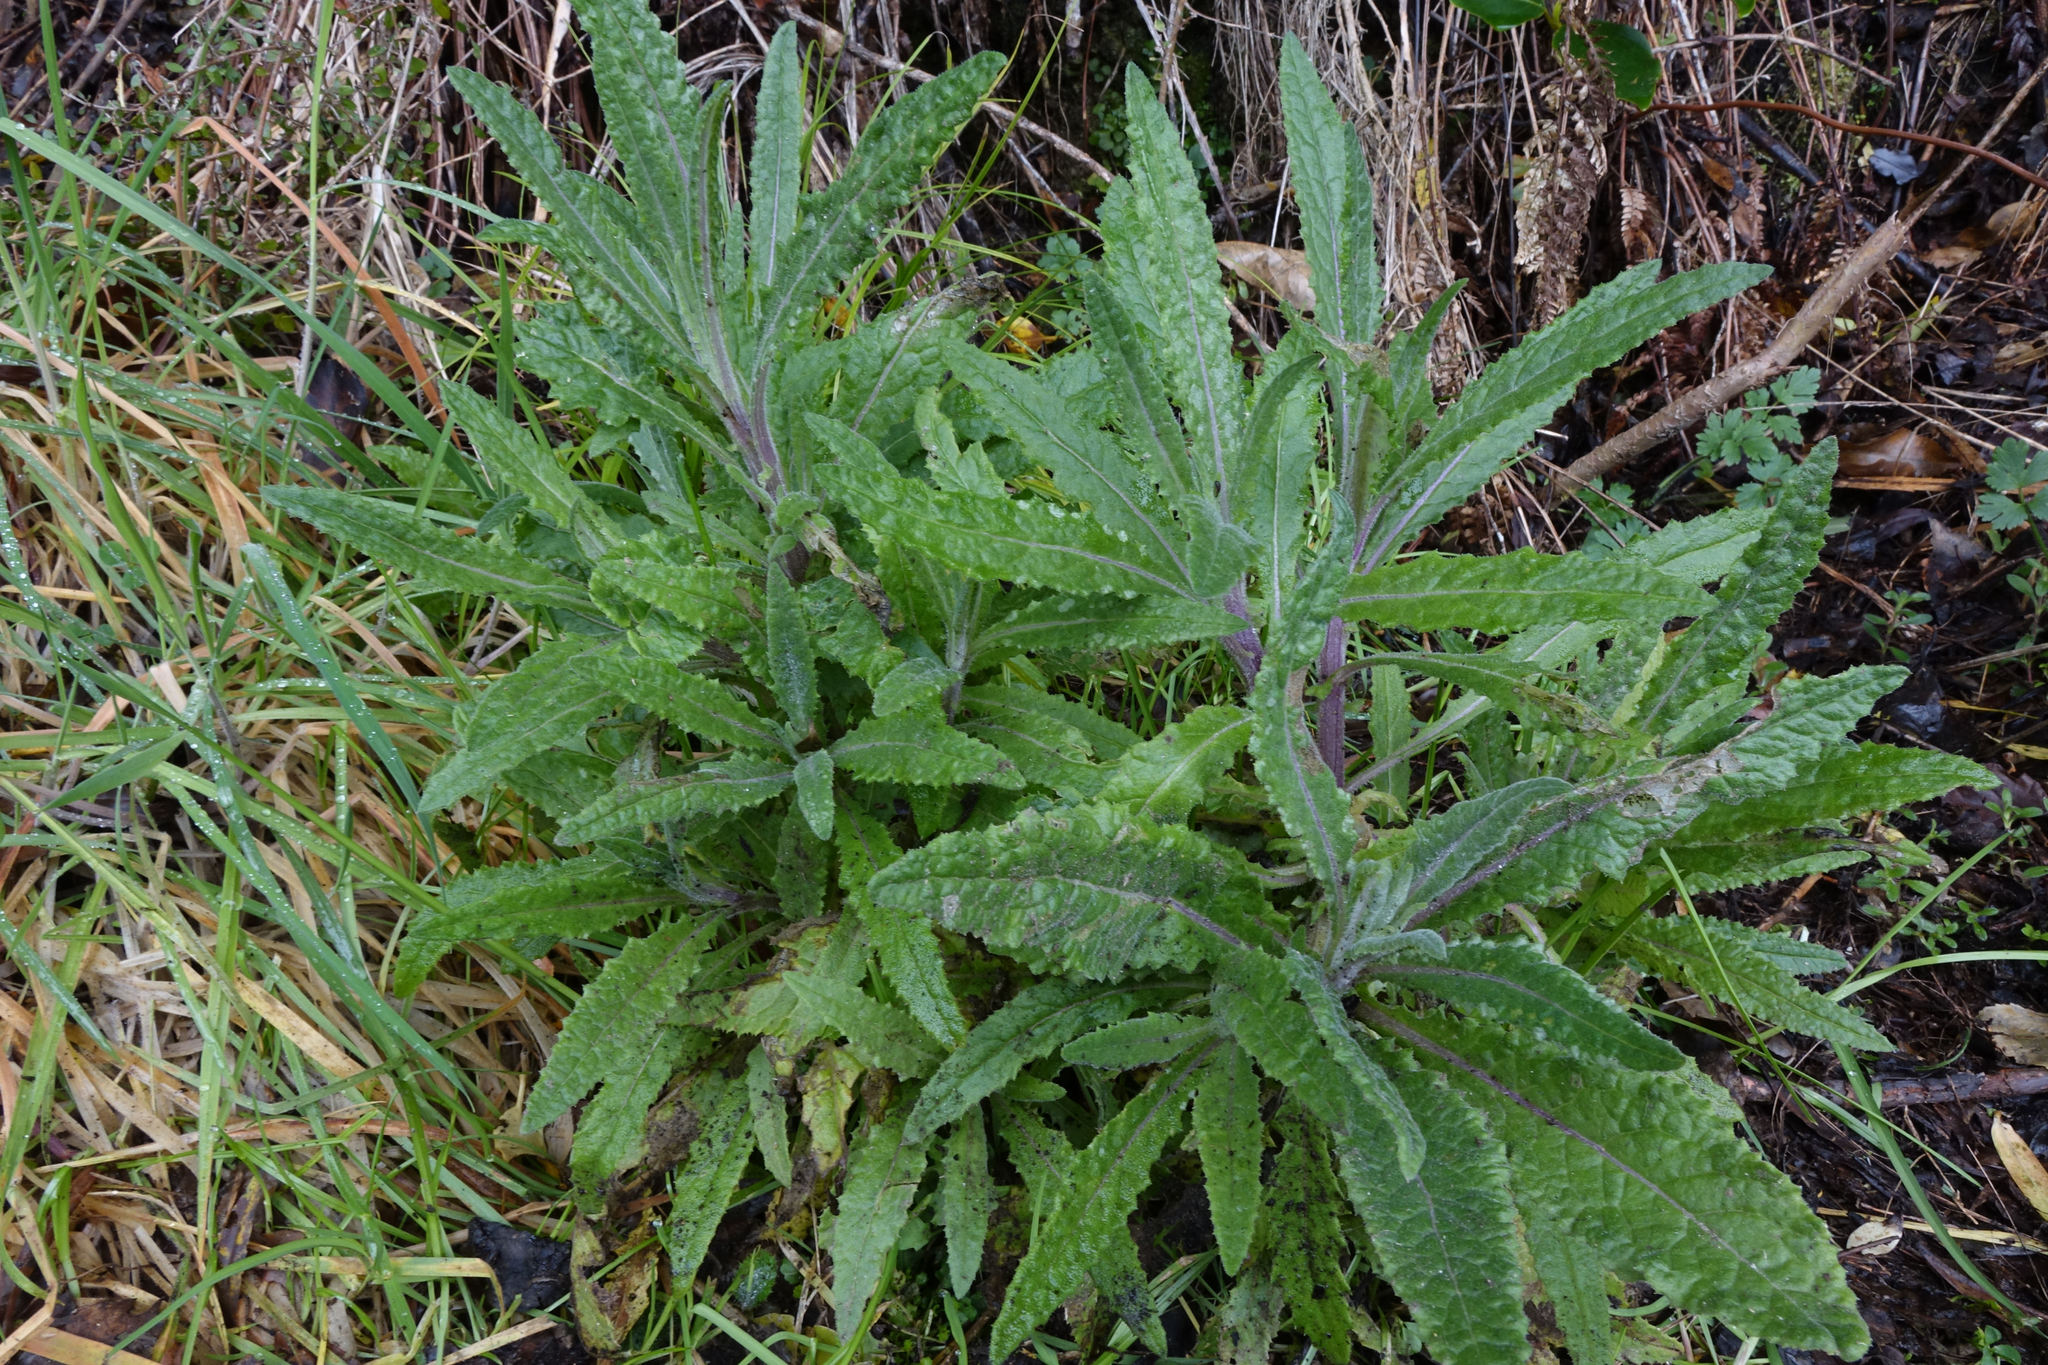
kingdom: Plantae
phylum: Tracheophyta
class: Magnoliopsida
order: Asterales
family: Asteraceae
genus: Senecio
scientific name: Senecio minimus
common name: Toothed fireweed
